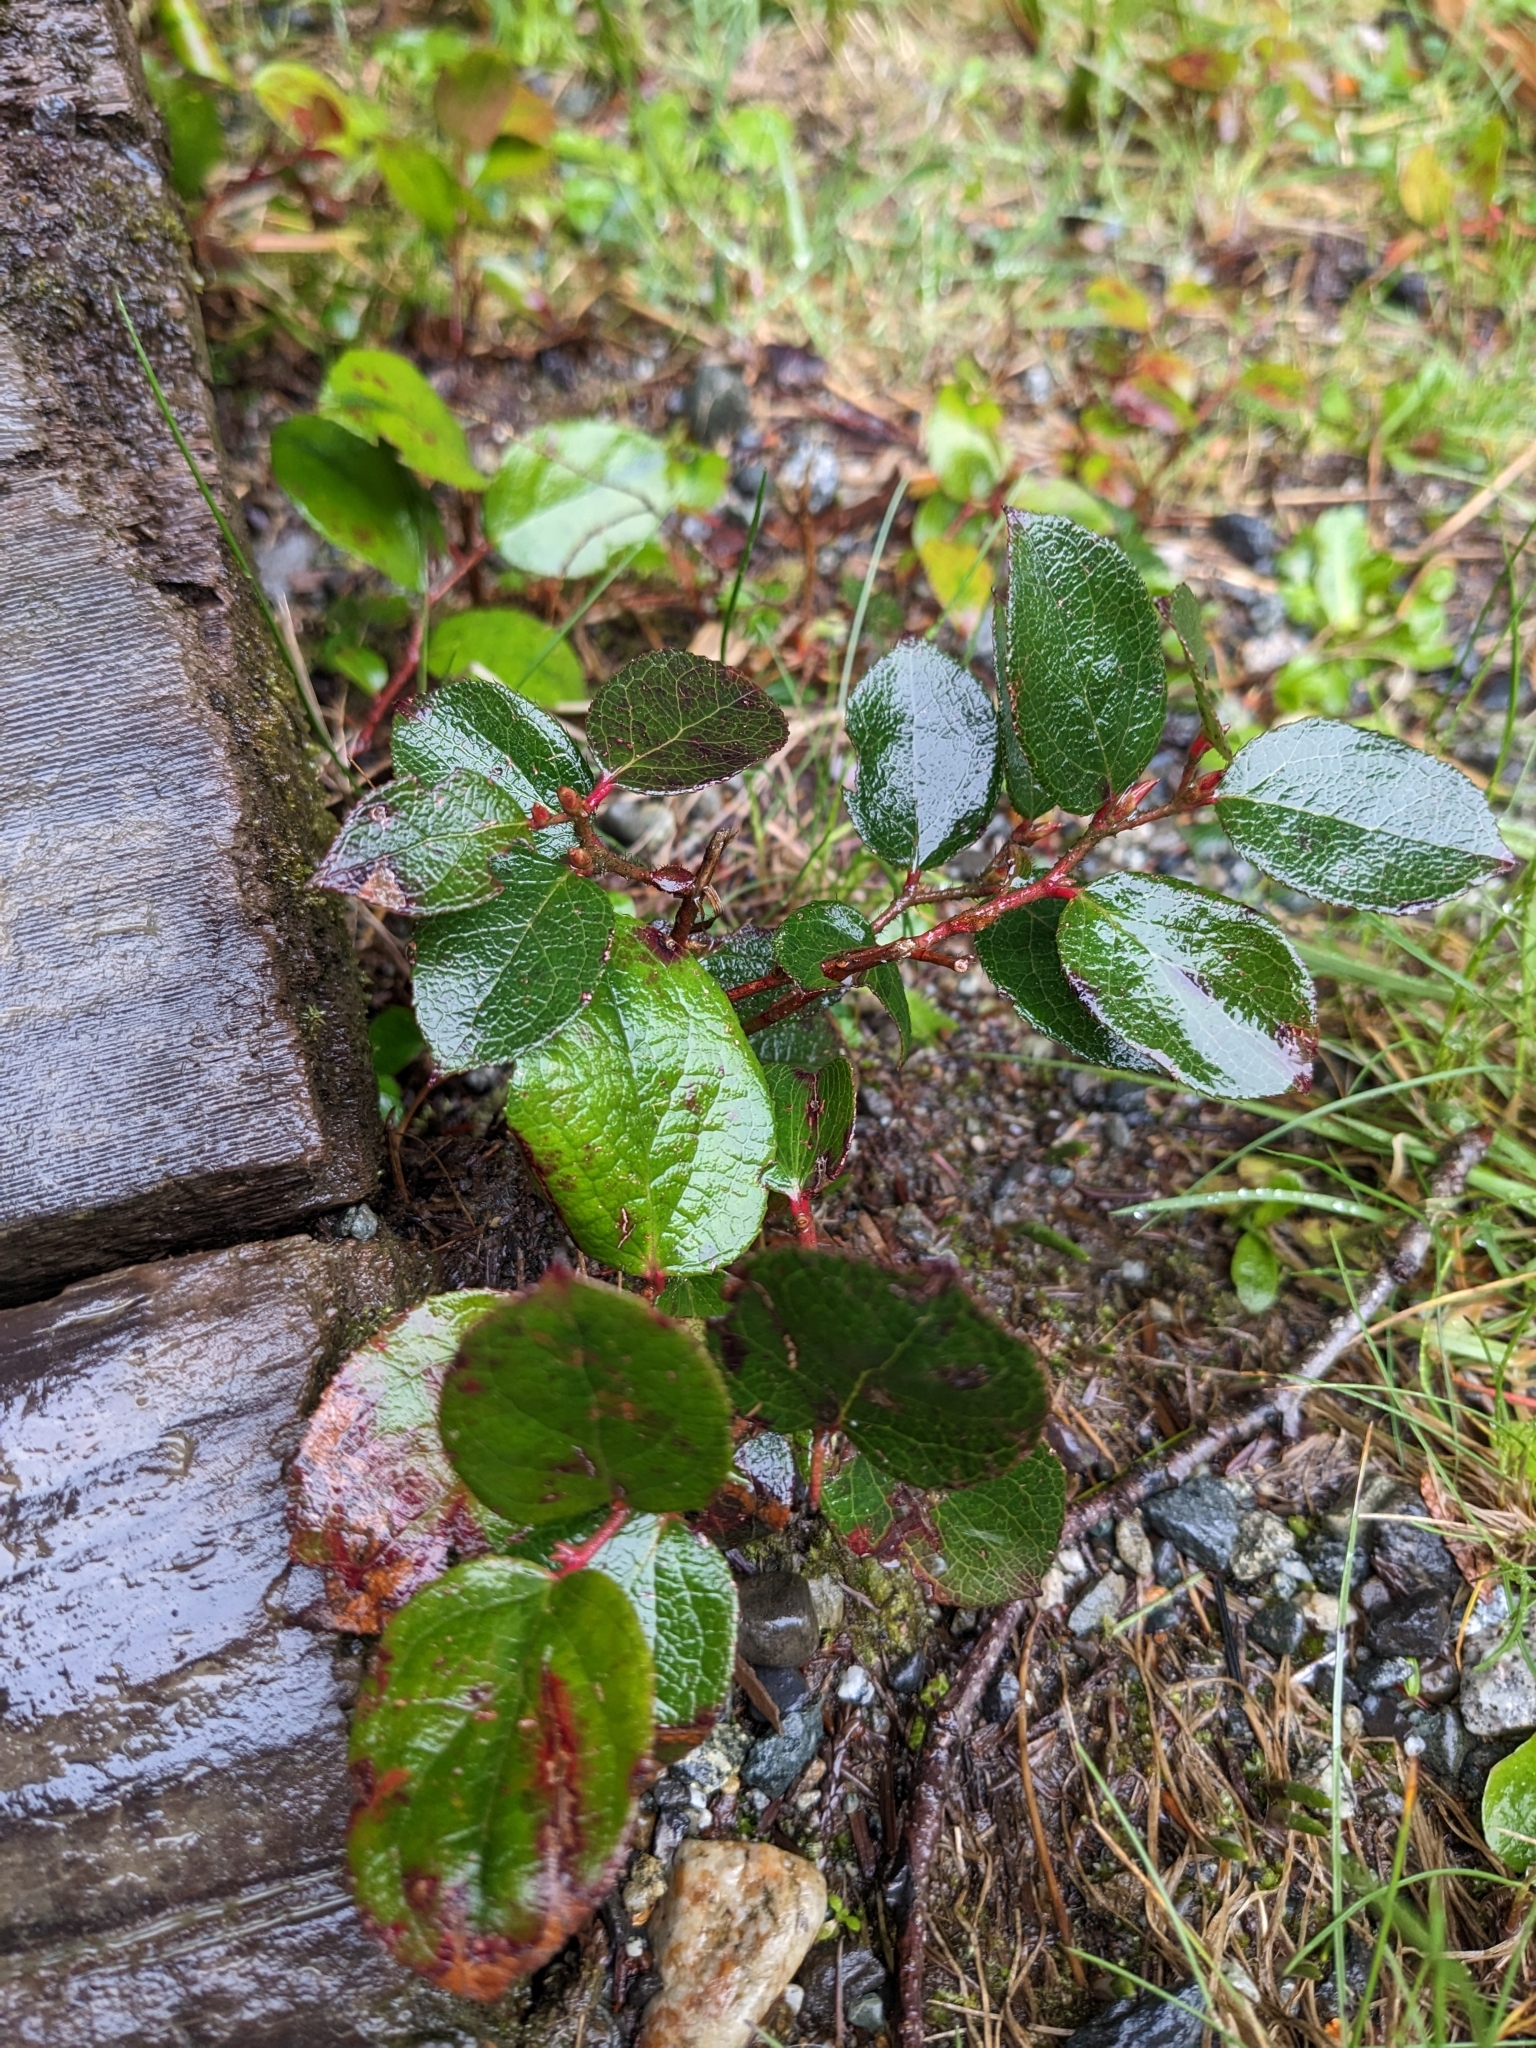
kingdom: Plantae
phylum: Tracheophyta
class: Magnoliopsida
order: Ericales
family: Ericaceae
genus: Gaultheria
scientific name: Gaultheria shallon
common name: Shallon
